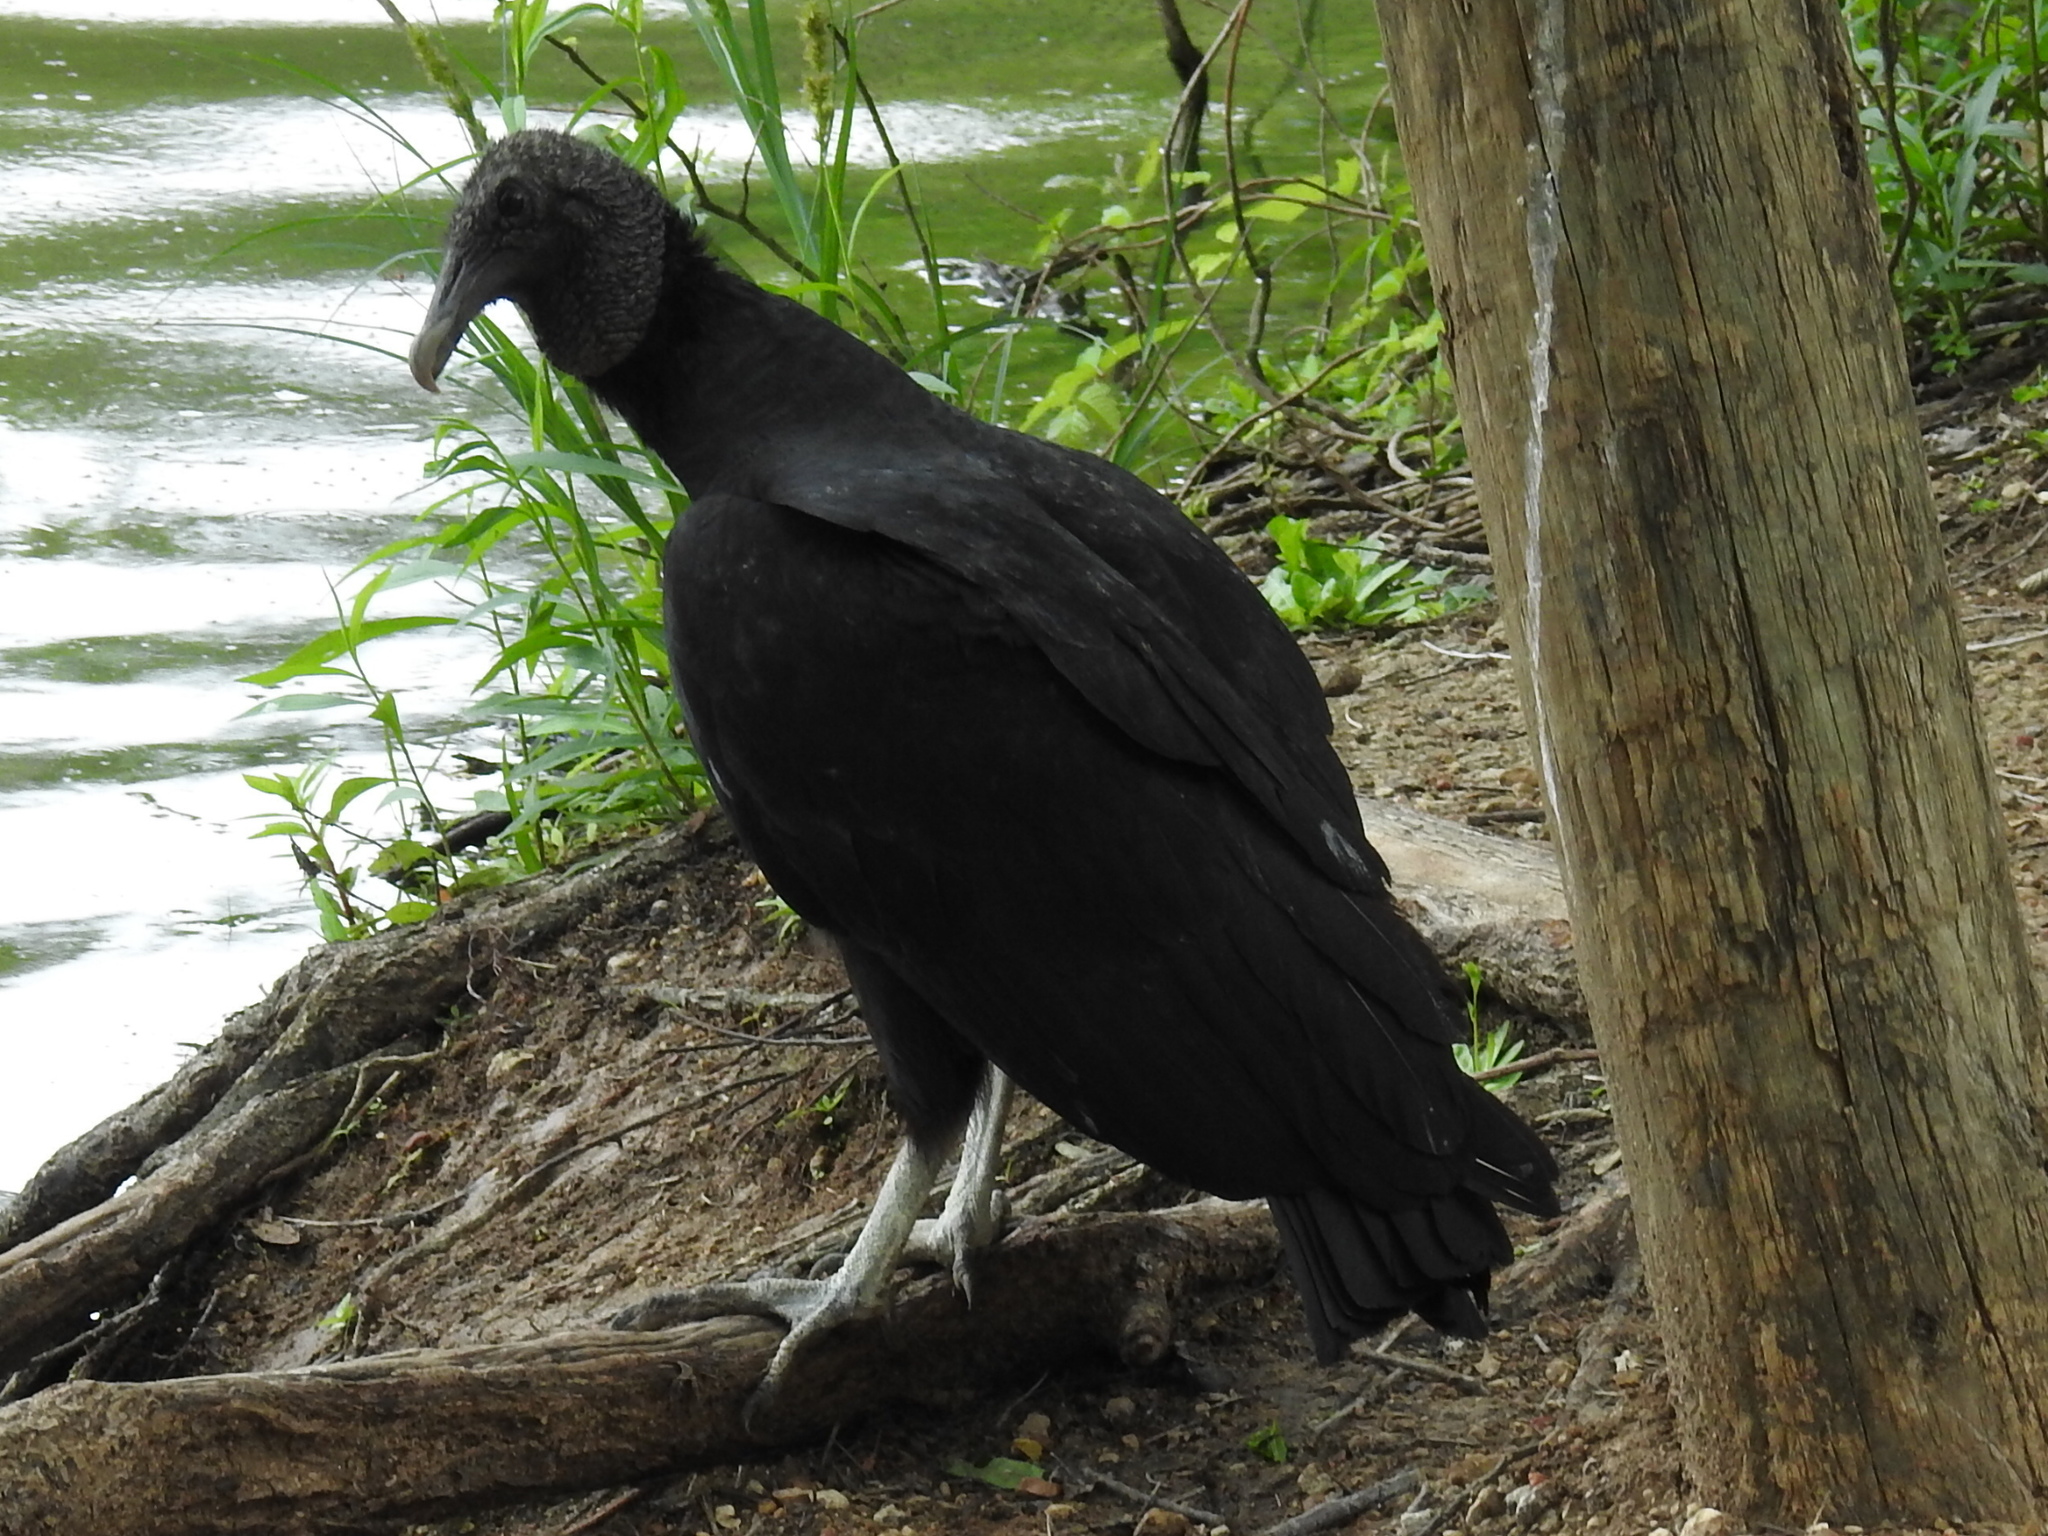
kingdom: Animalia
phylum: Chordata
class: Aves
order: Accipitriformes
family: Cathartidae
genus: Coragyps
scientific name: Coragyps atratus
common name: Black vulture
